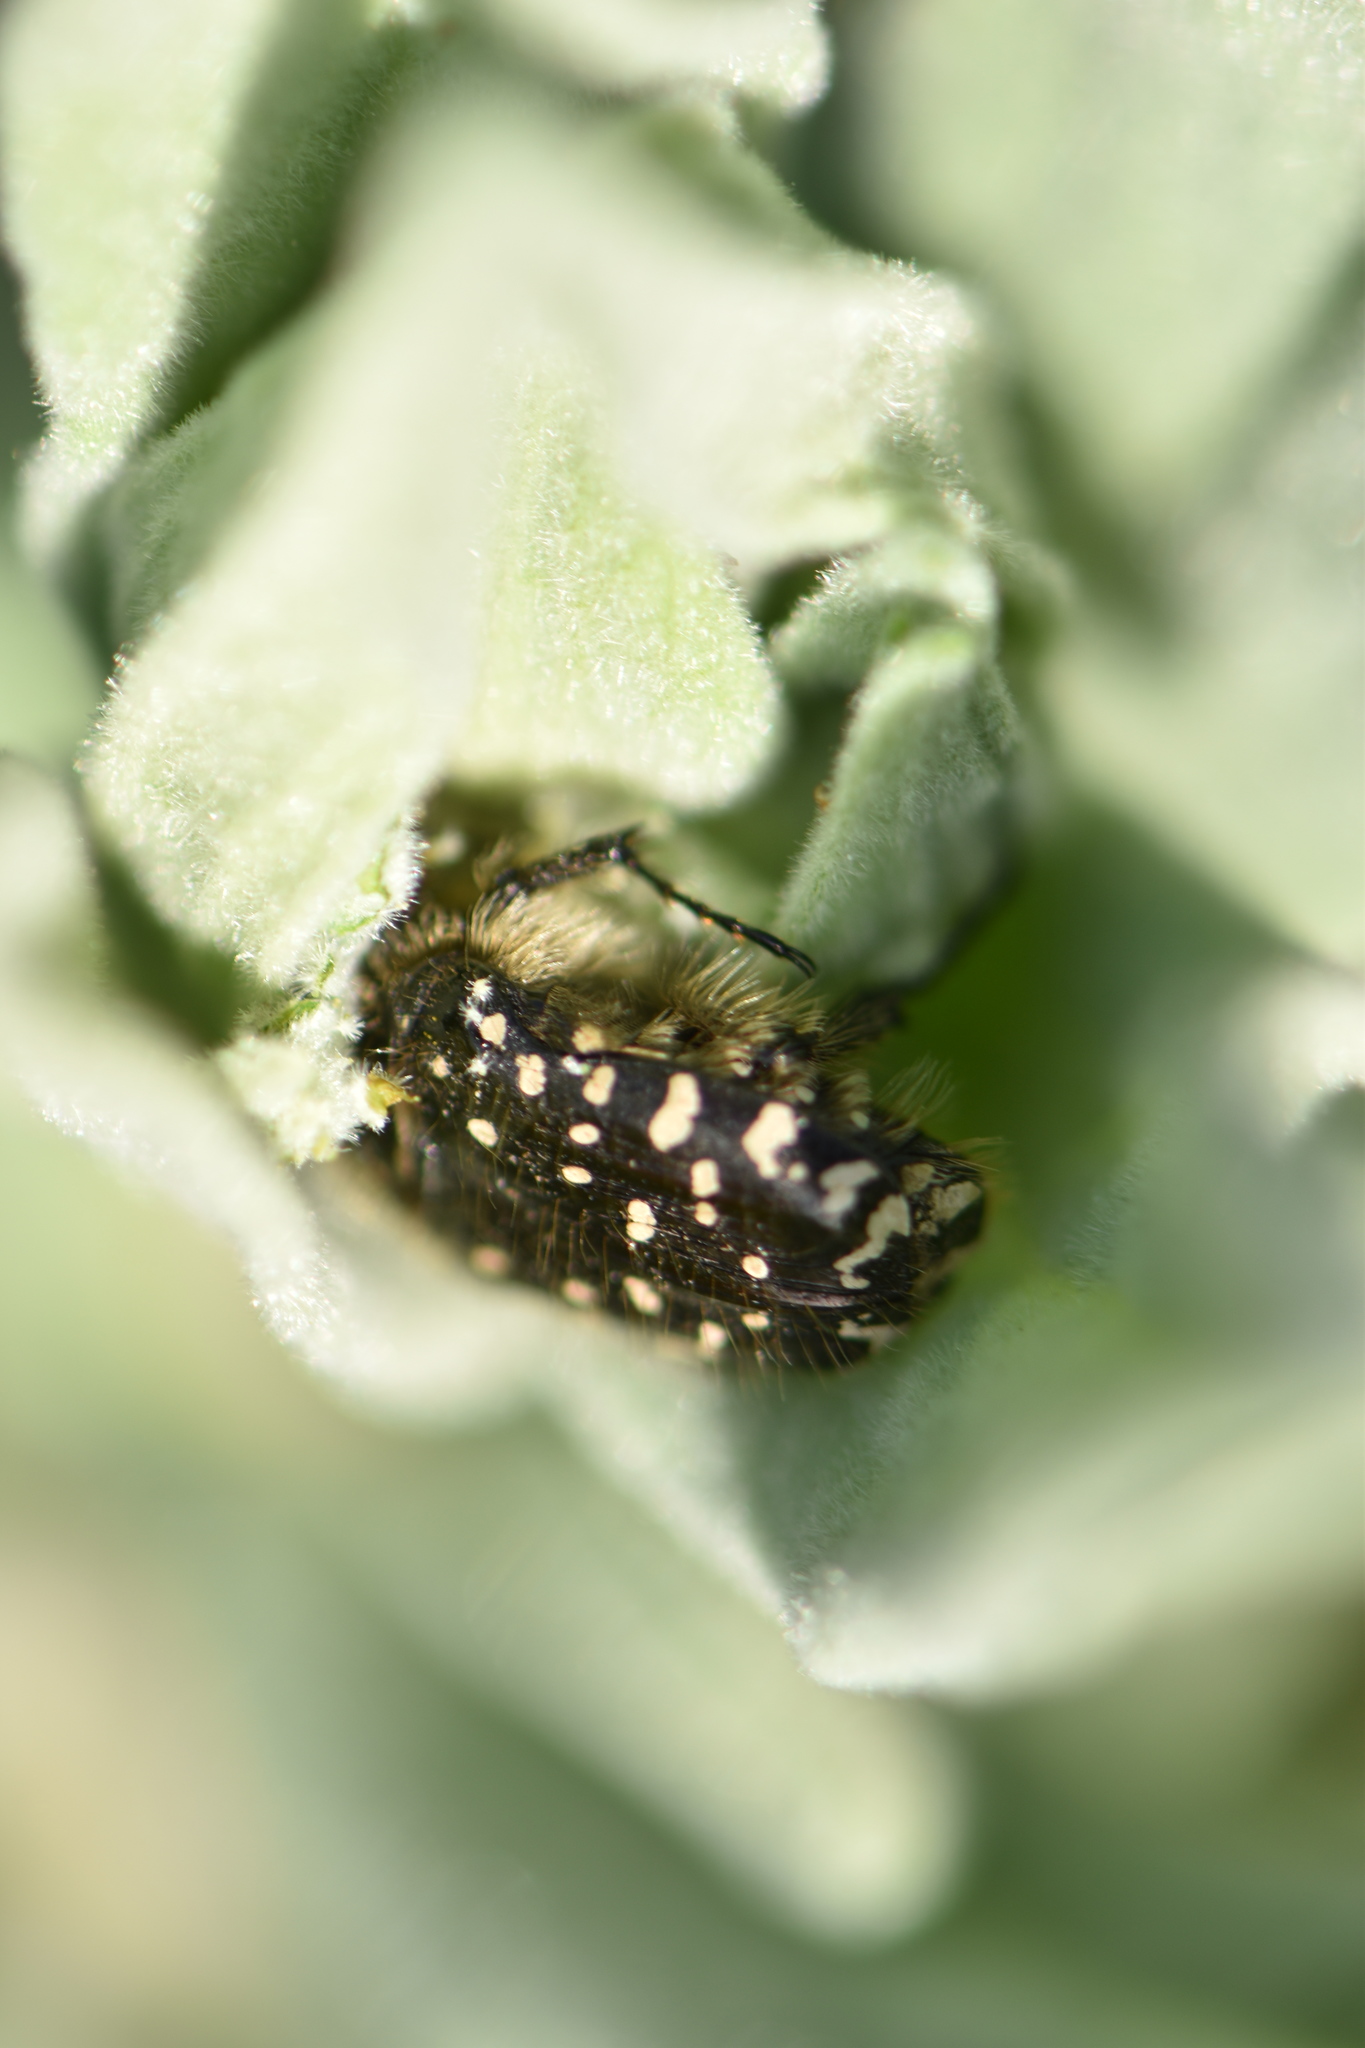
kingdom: Animalia
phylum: Arthropoda
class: Insecta
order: Coleoptera
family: Scarabaeidae
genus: Oxythyrea
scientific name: Oxythyrea funesta
